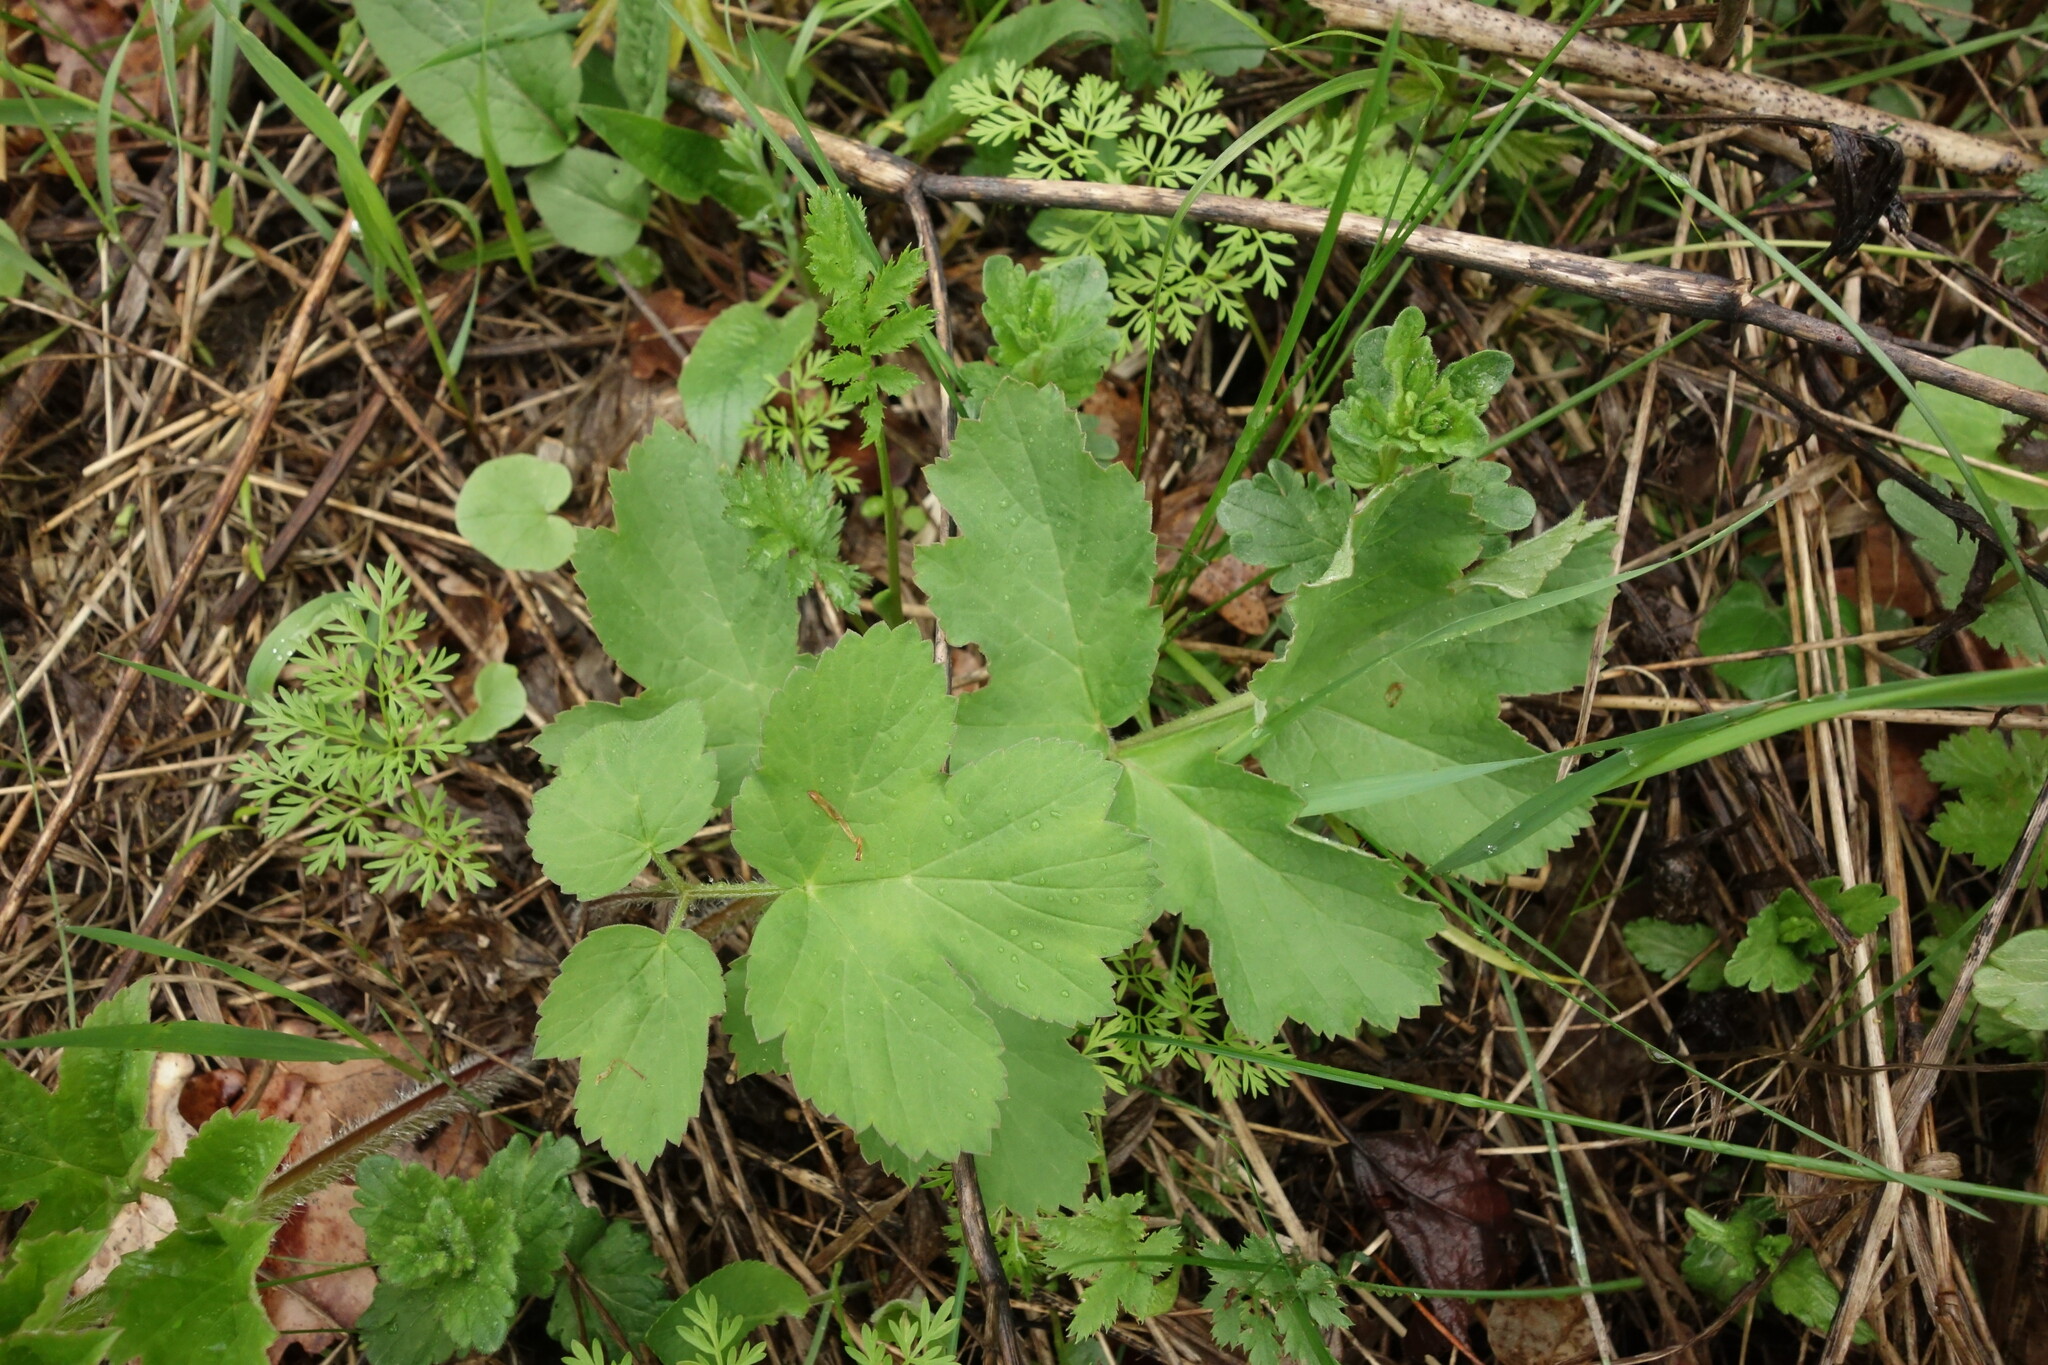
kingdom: Plantae
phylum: Tracheophyta
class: Magnoliopsida
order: Apiales
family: Apiaceae
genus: Heracleum
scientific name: Heracleum sphondylium
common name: Hogweed
